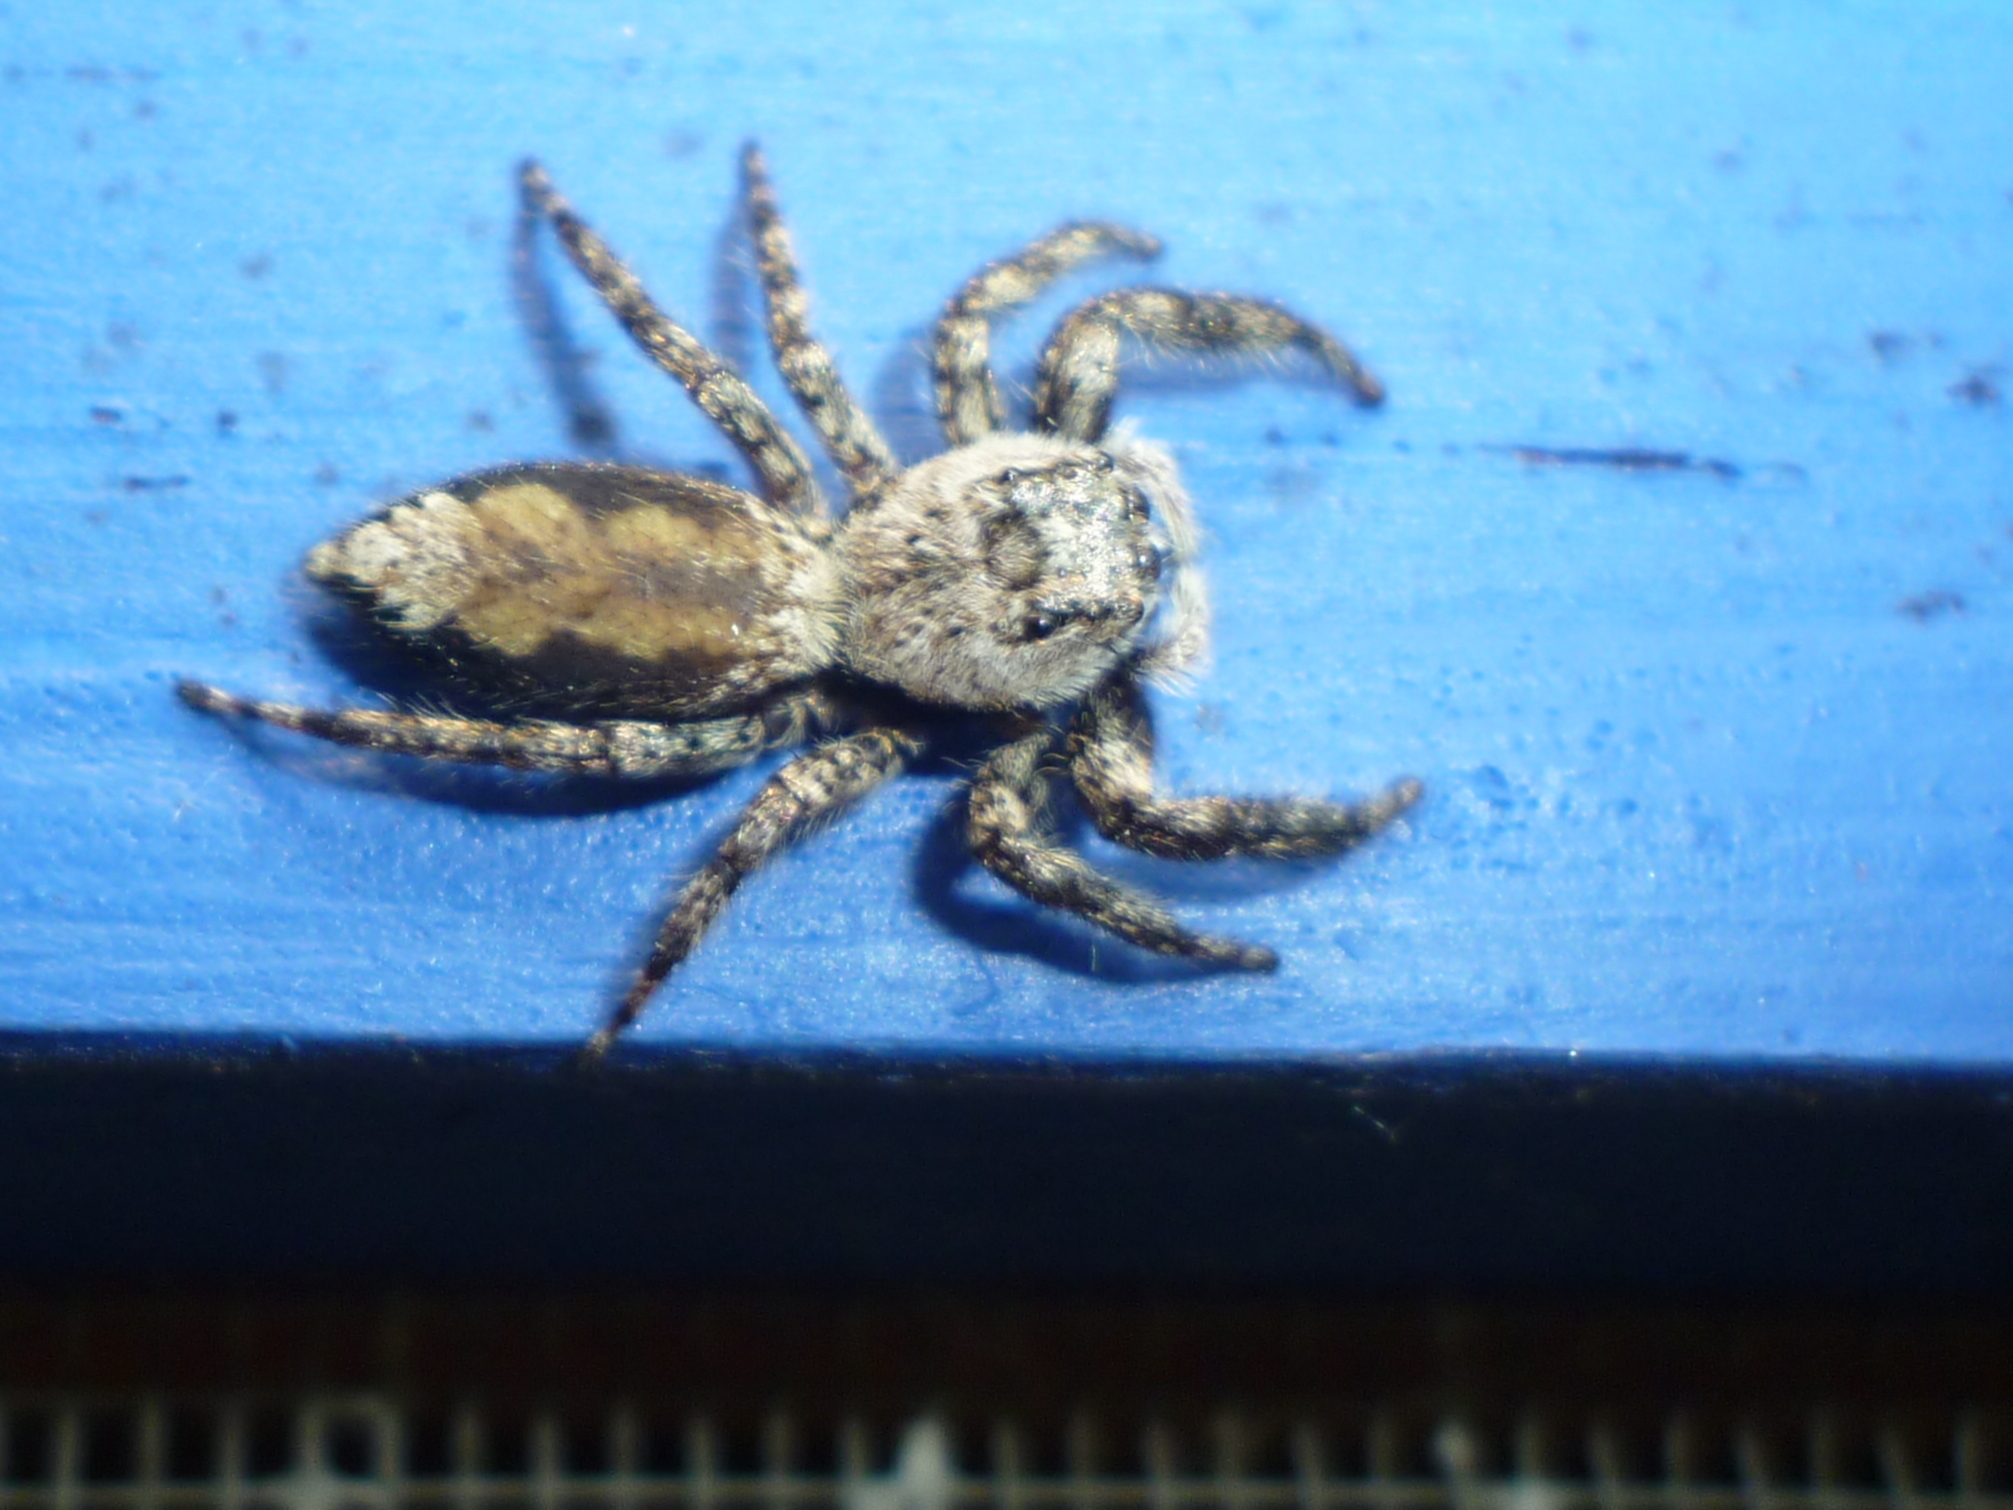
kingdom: Animalia
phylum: Arthropoda
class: Arachnida
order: Araneae
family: Salticidae
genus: Platycryptus
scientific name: Platycryptus undatus
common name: Tan jumping spider
